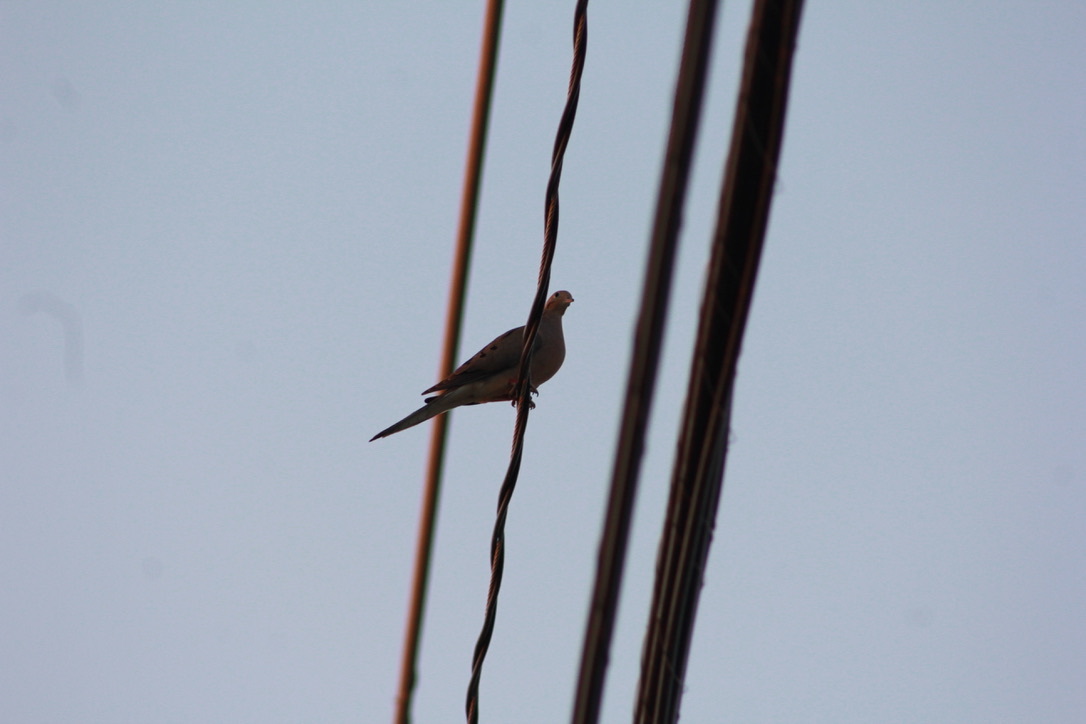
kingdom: Animalia
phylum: Chordata
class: Aves
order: Columbiformes
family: Columbidae
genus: Zenaida
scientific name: Zenaida macroura
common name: Mourning dove
